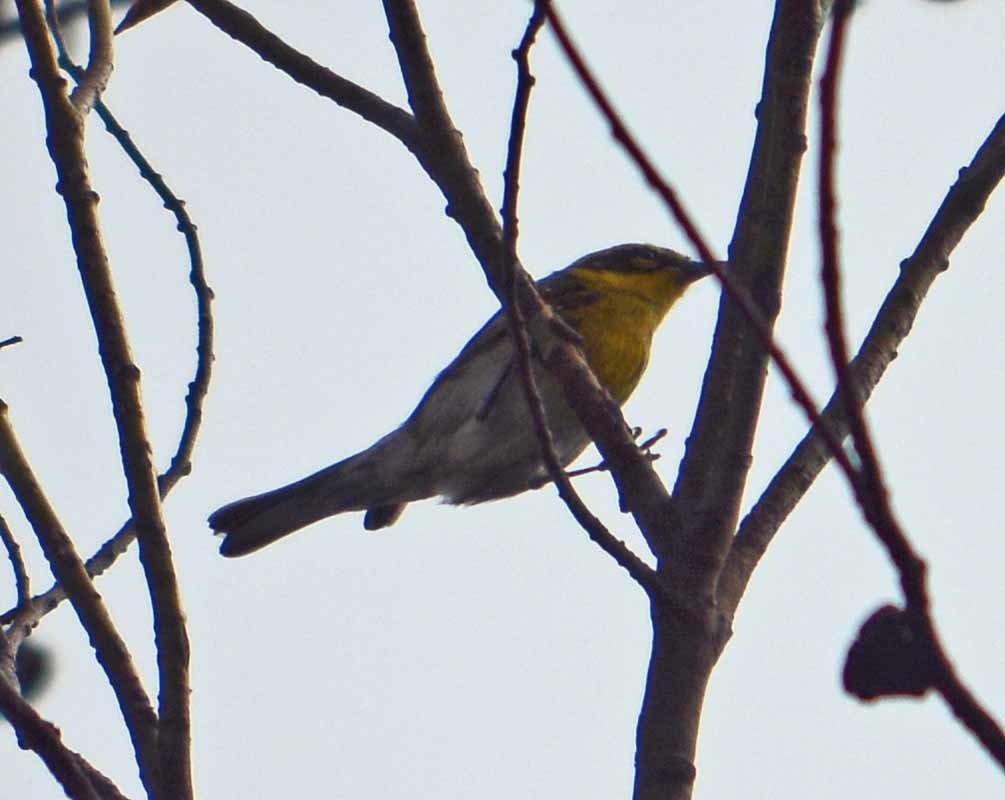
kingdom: Animalia
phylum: Chordata
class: Aves
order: Passeriformes
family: Parulidae
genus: Setophaga
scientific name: Setophaga townsendi
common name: Townsend's warbler
